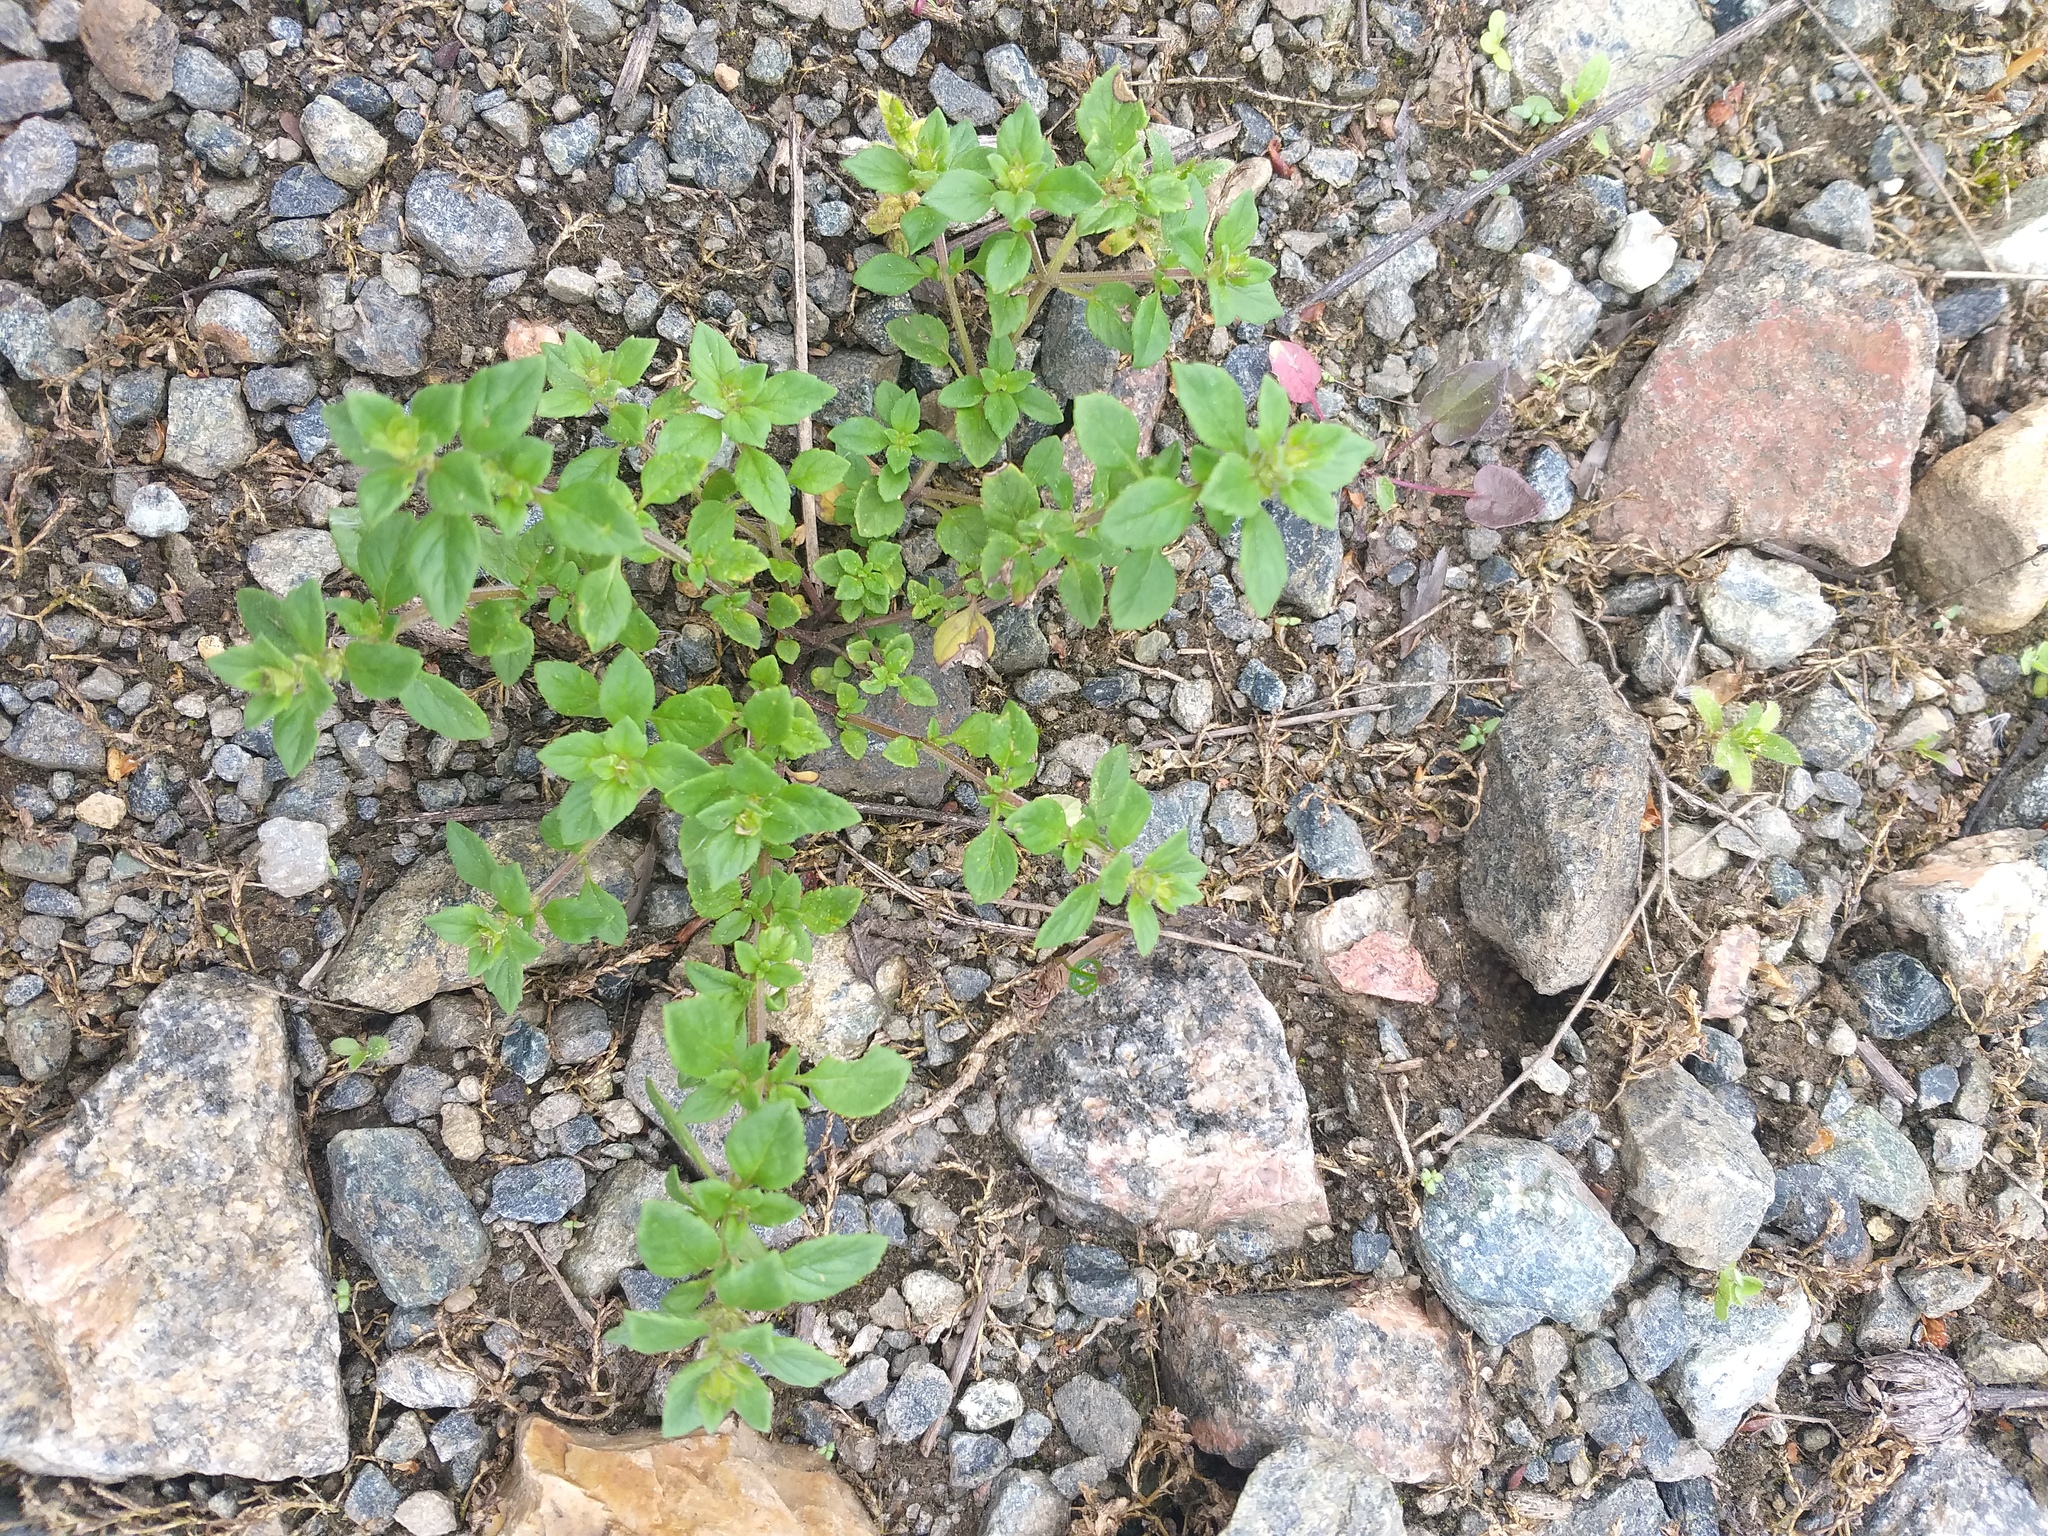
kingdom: Plantae
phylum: Tracheophyta
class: Magnoliopsida
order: Lamiales
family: Lamiaceae
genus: Clinopodium
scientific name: Clinopodium acinos
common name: Basil thyme
